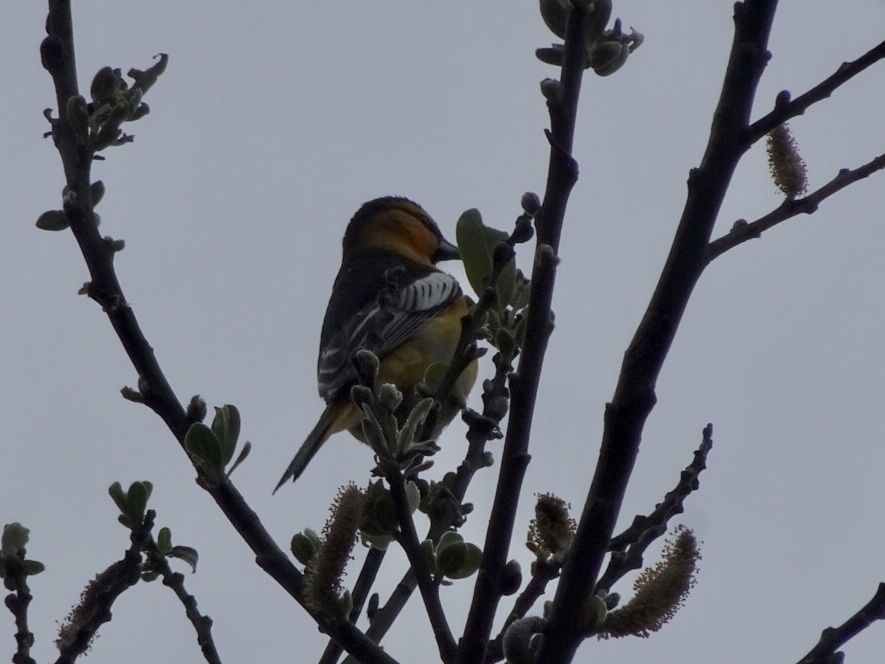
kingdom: Animalia
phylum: Chordata
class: Aves
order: Passeriformes
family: Icteridae
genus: Icterus
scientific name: Icterus bullockii
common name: Bullock's oriole
